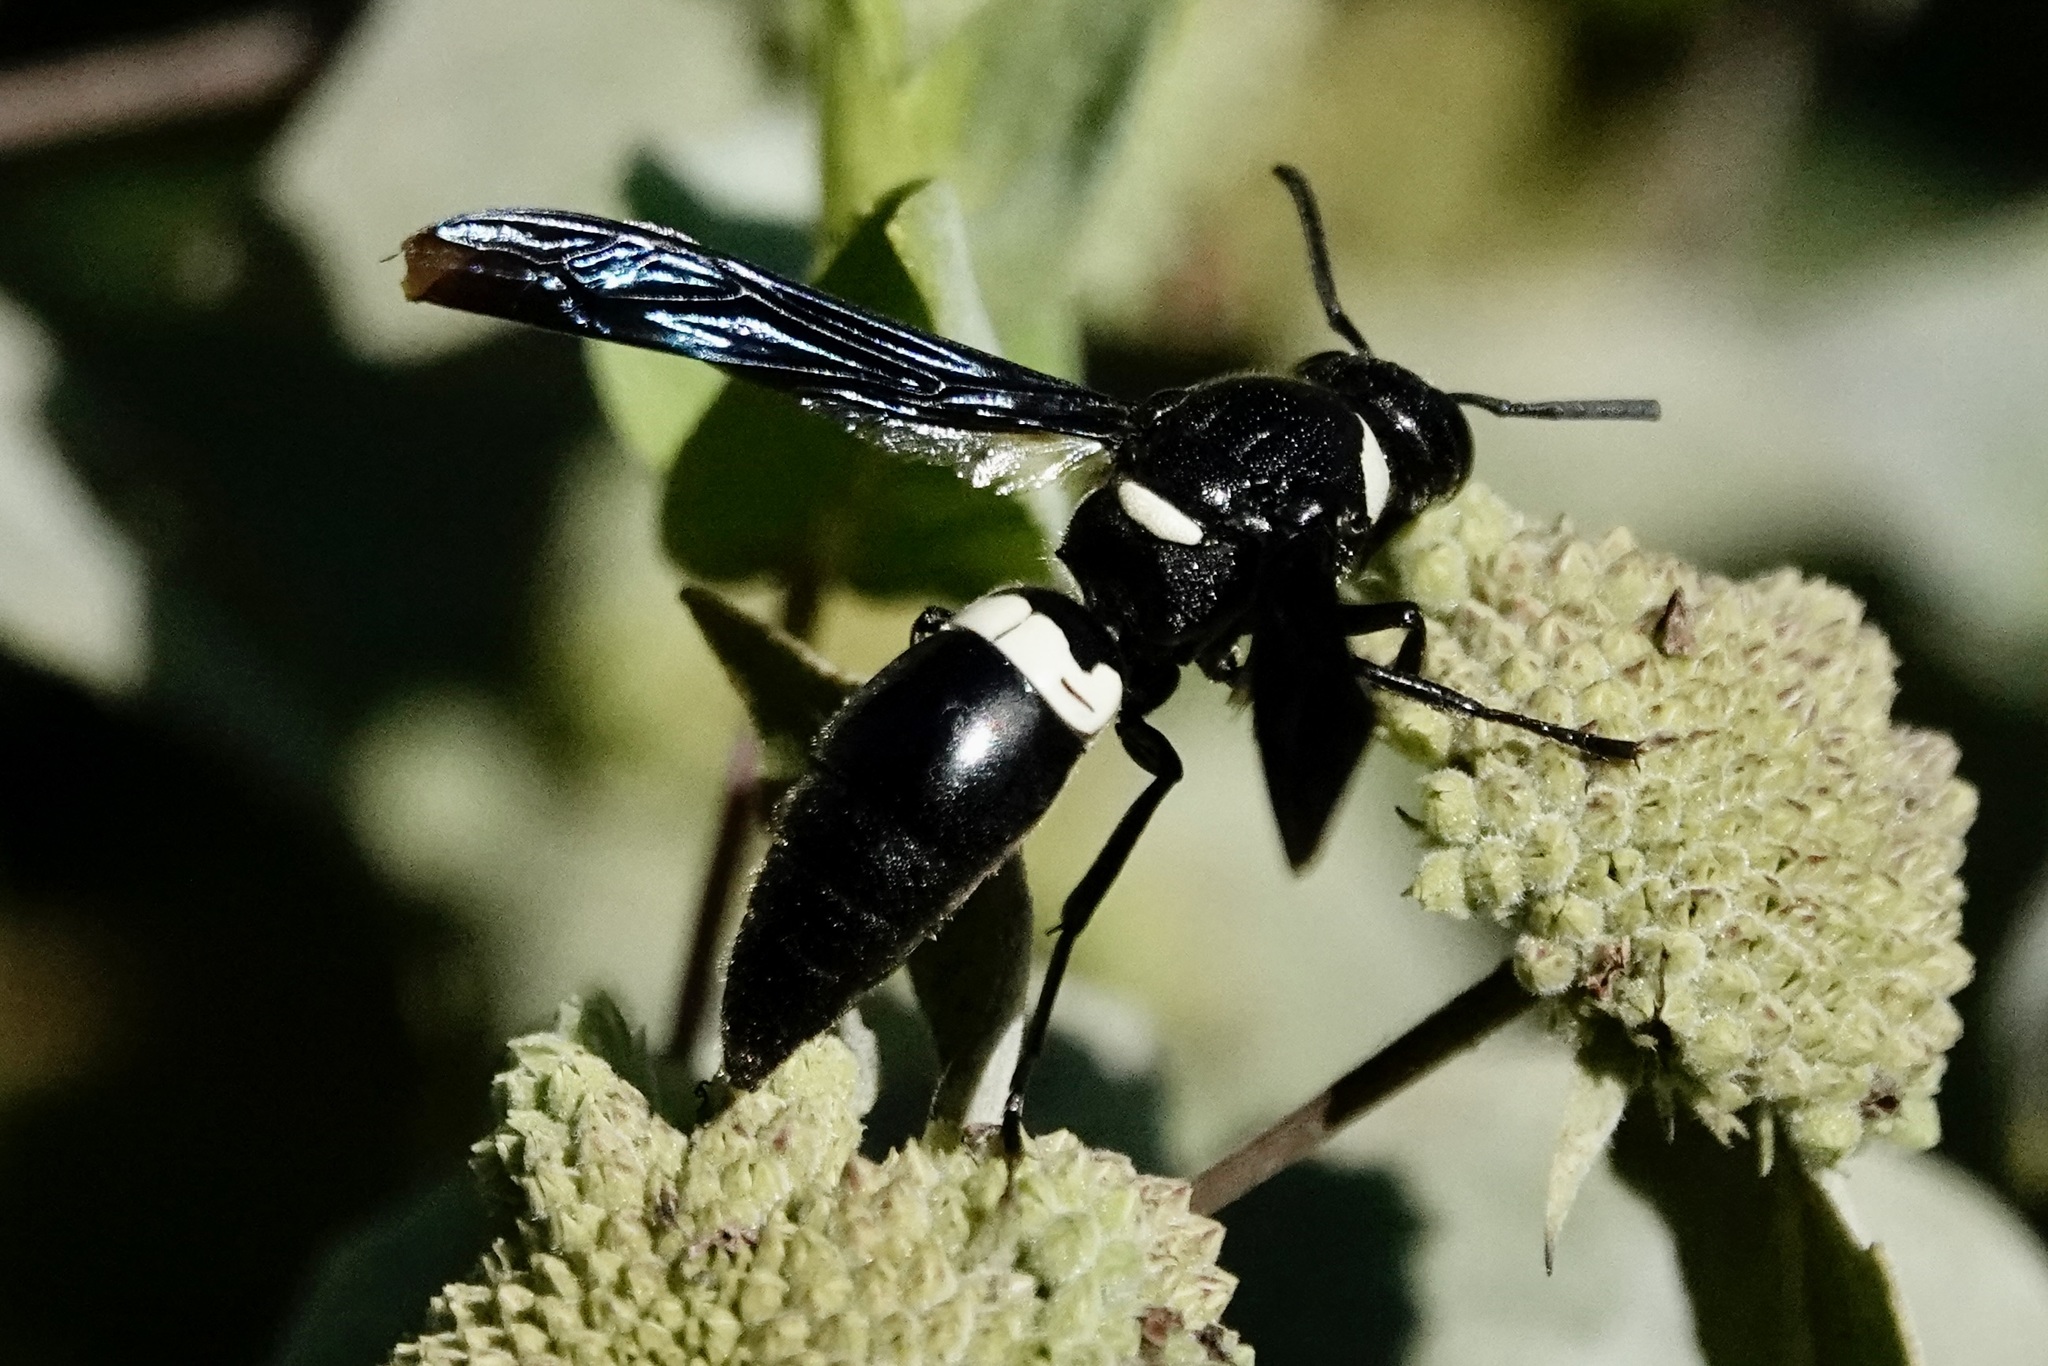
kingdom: Animalia
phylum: Arthropoda
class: Insecta
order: Hymenoptera
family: Eumenidae
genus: Monobia
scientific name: Monobia quadridens
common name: Four-toothed mason wasp
